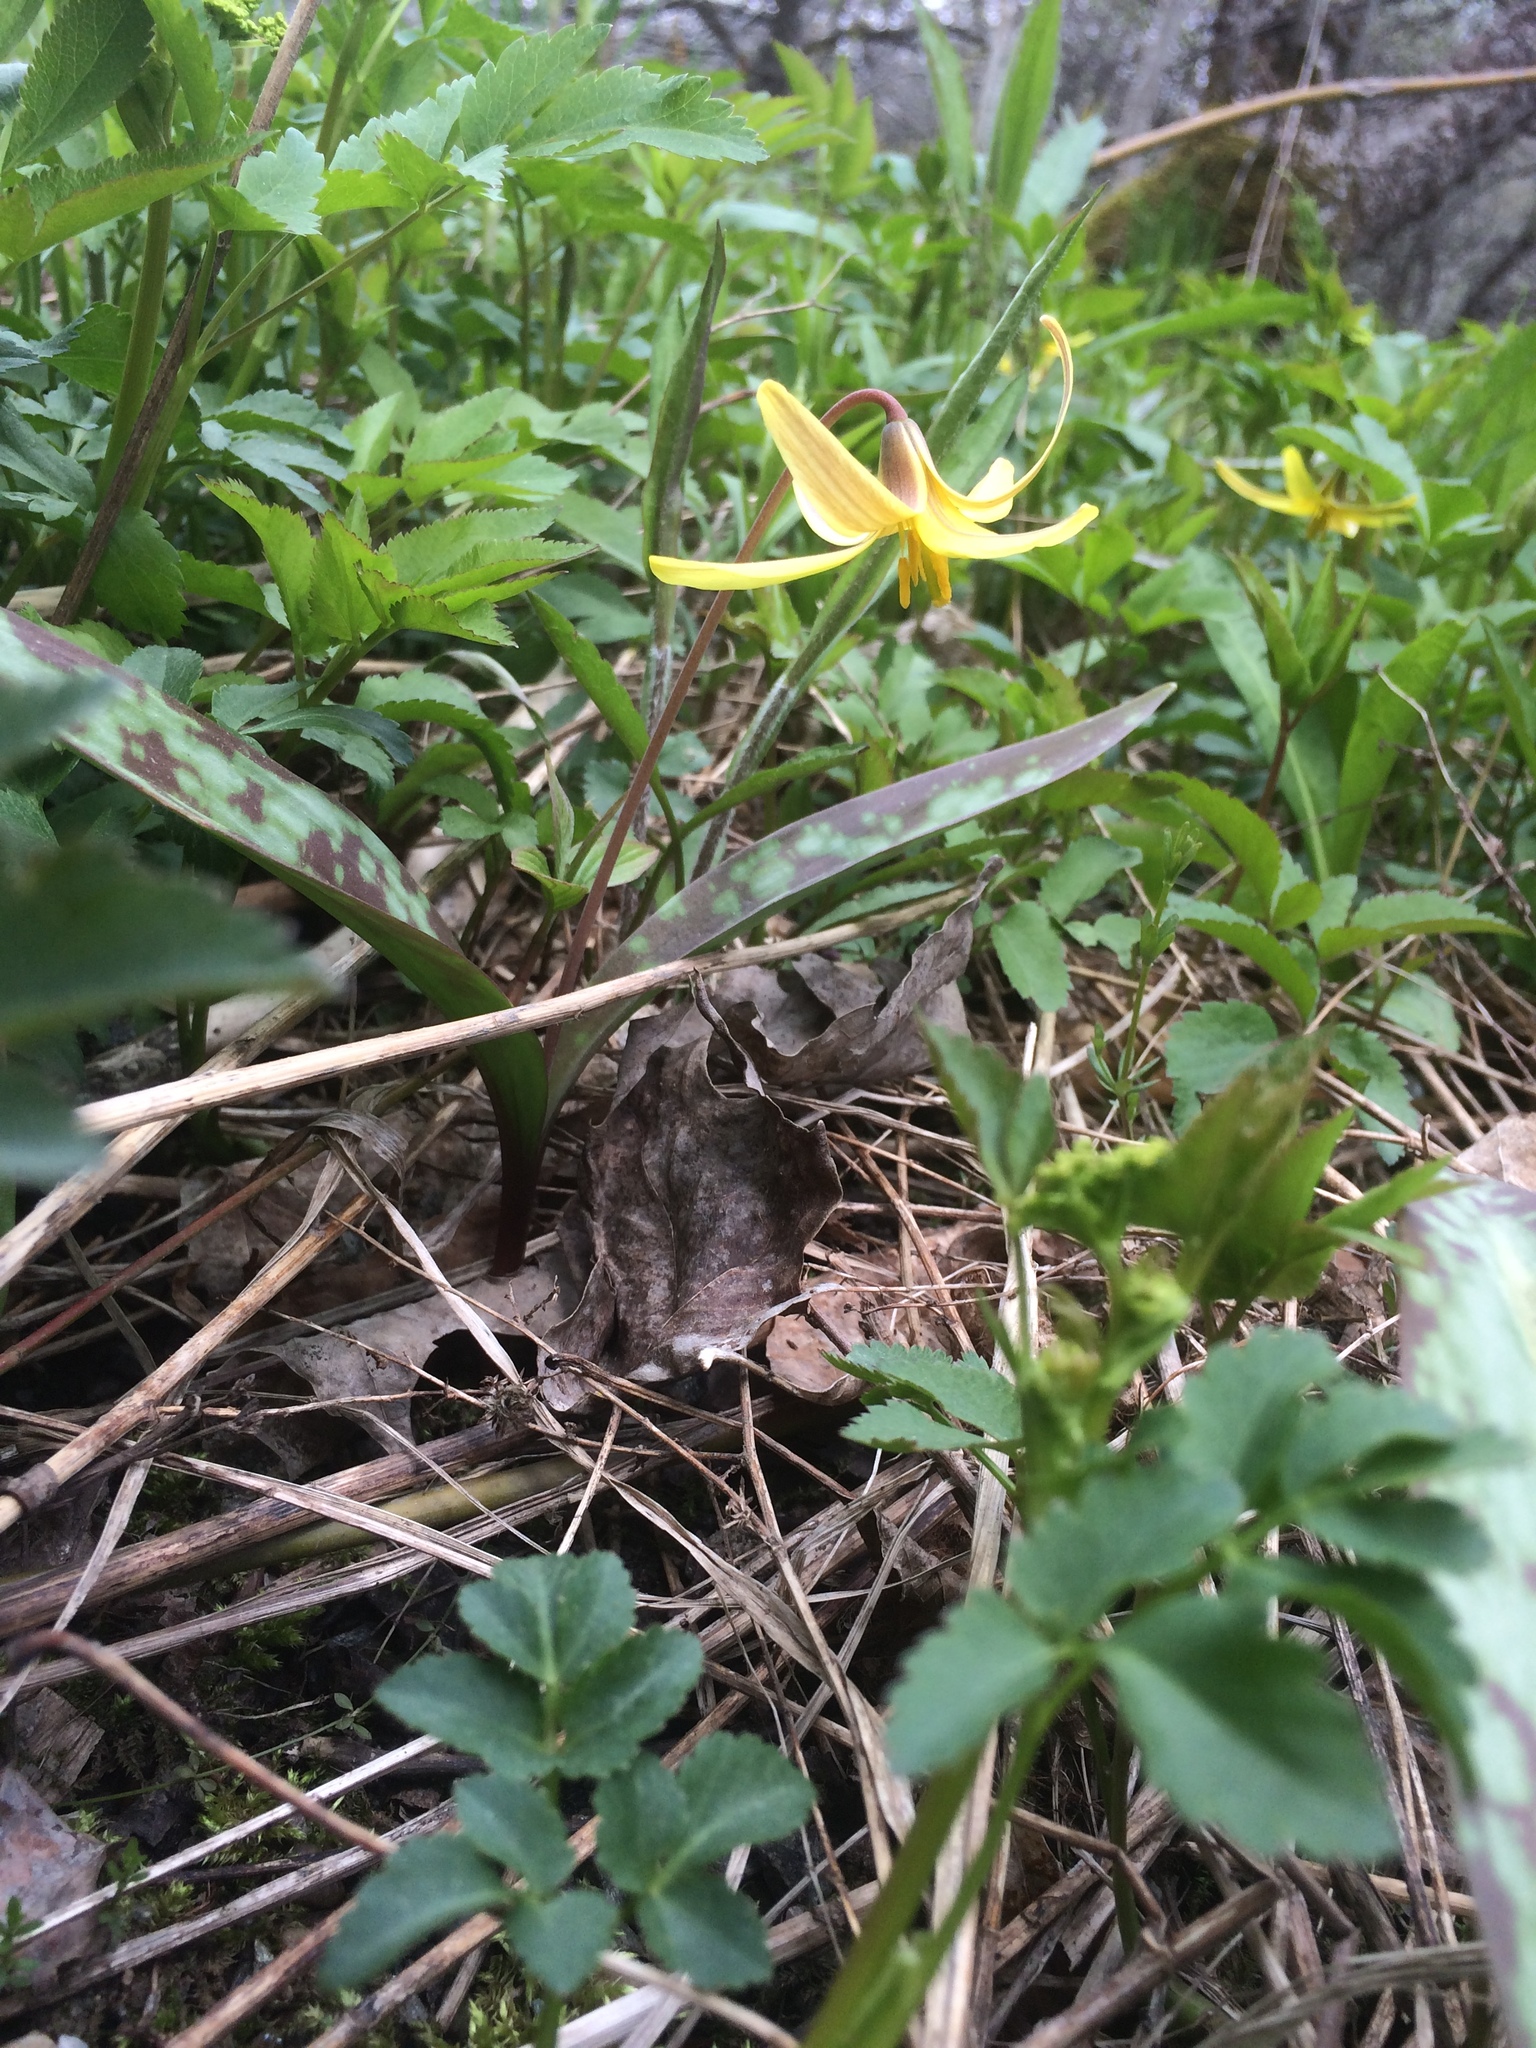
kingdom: Plantae
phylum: Tracheophyta
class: Liliopsida
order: Liliales
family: Liliaceae
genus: Erythronium
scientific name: Erythronium americanum
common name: Yellow adder's-tongue
